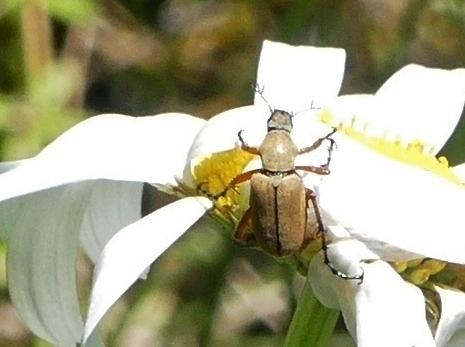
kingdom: Animalia
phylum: Arthropoda
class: Insecta
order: Coleoptera
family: Scarabaeidae
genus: Macrodactylus
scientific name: Macrodactylus subspinosus
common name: American rose chafer
